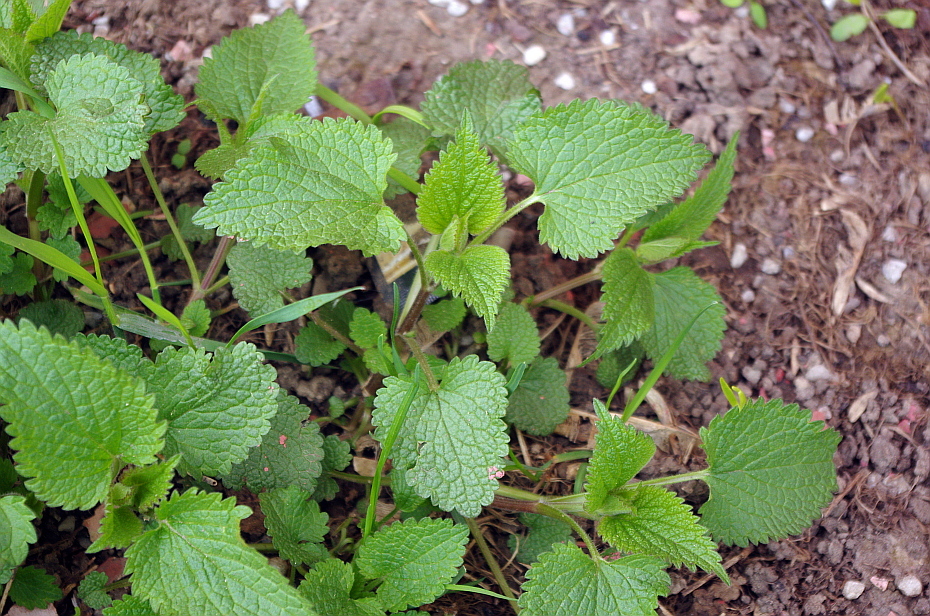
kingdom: Plantae
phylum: Tracheophyta
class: Magnoliopsida
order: Lamiales
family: Lamiaceae
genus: Lamium
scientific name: Lamium album
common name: White dead-nettle
